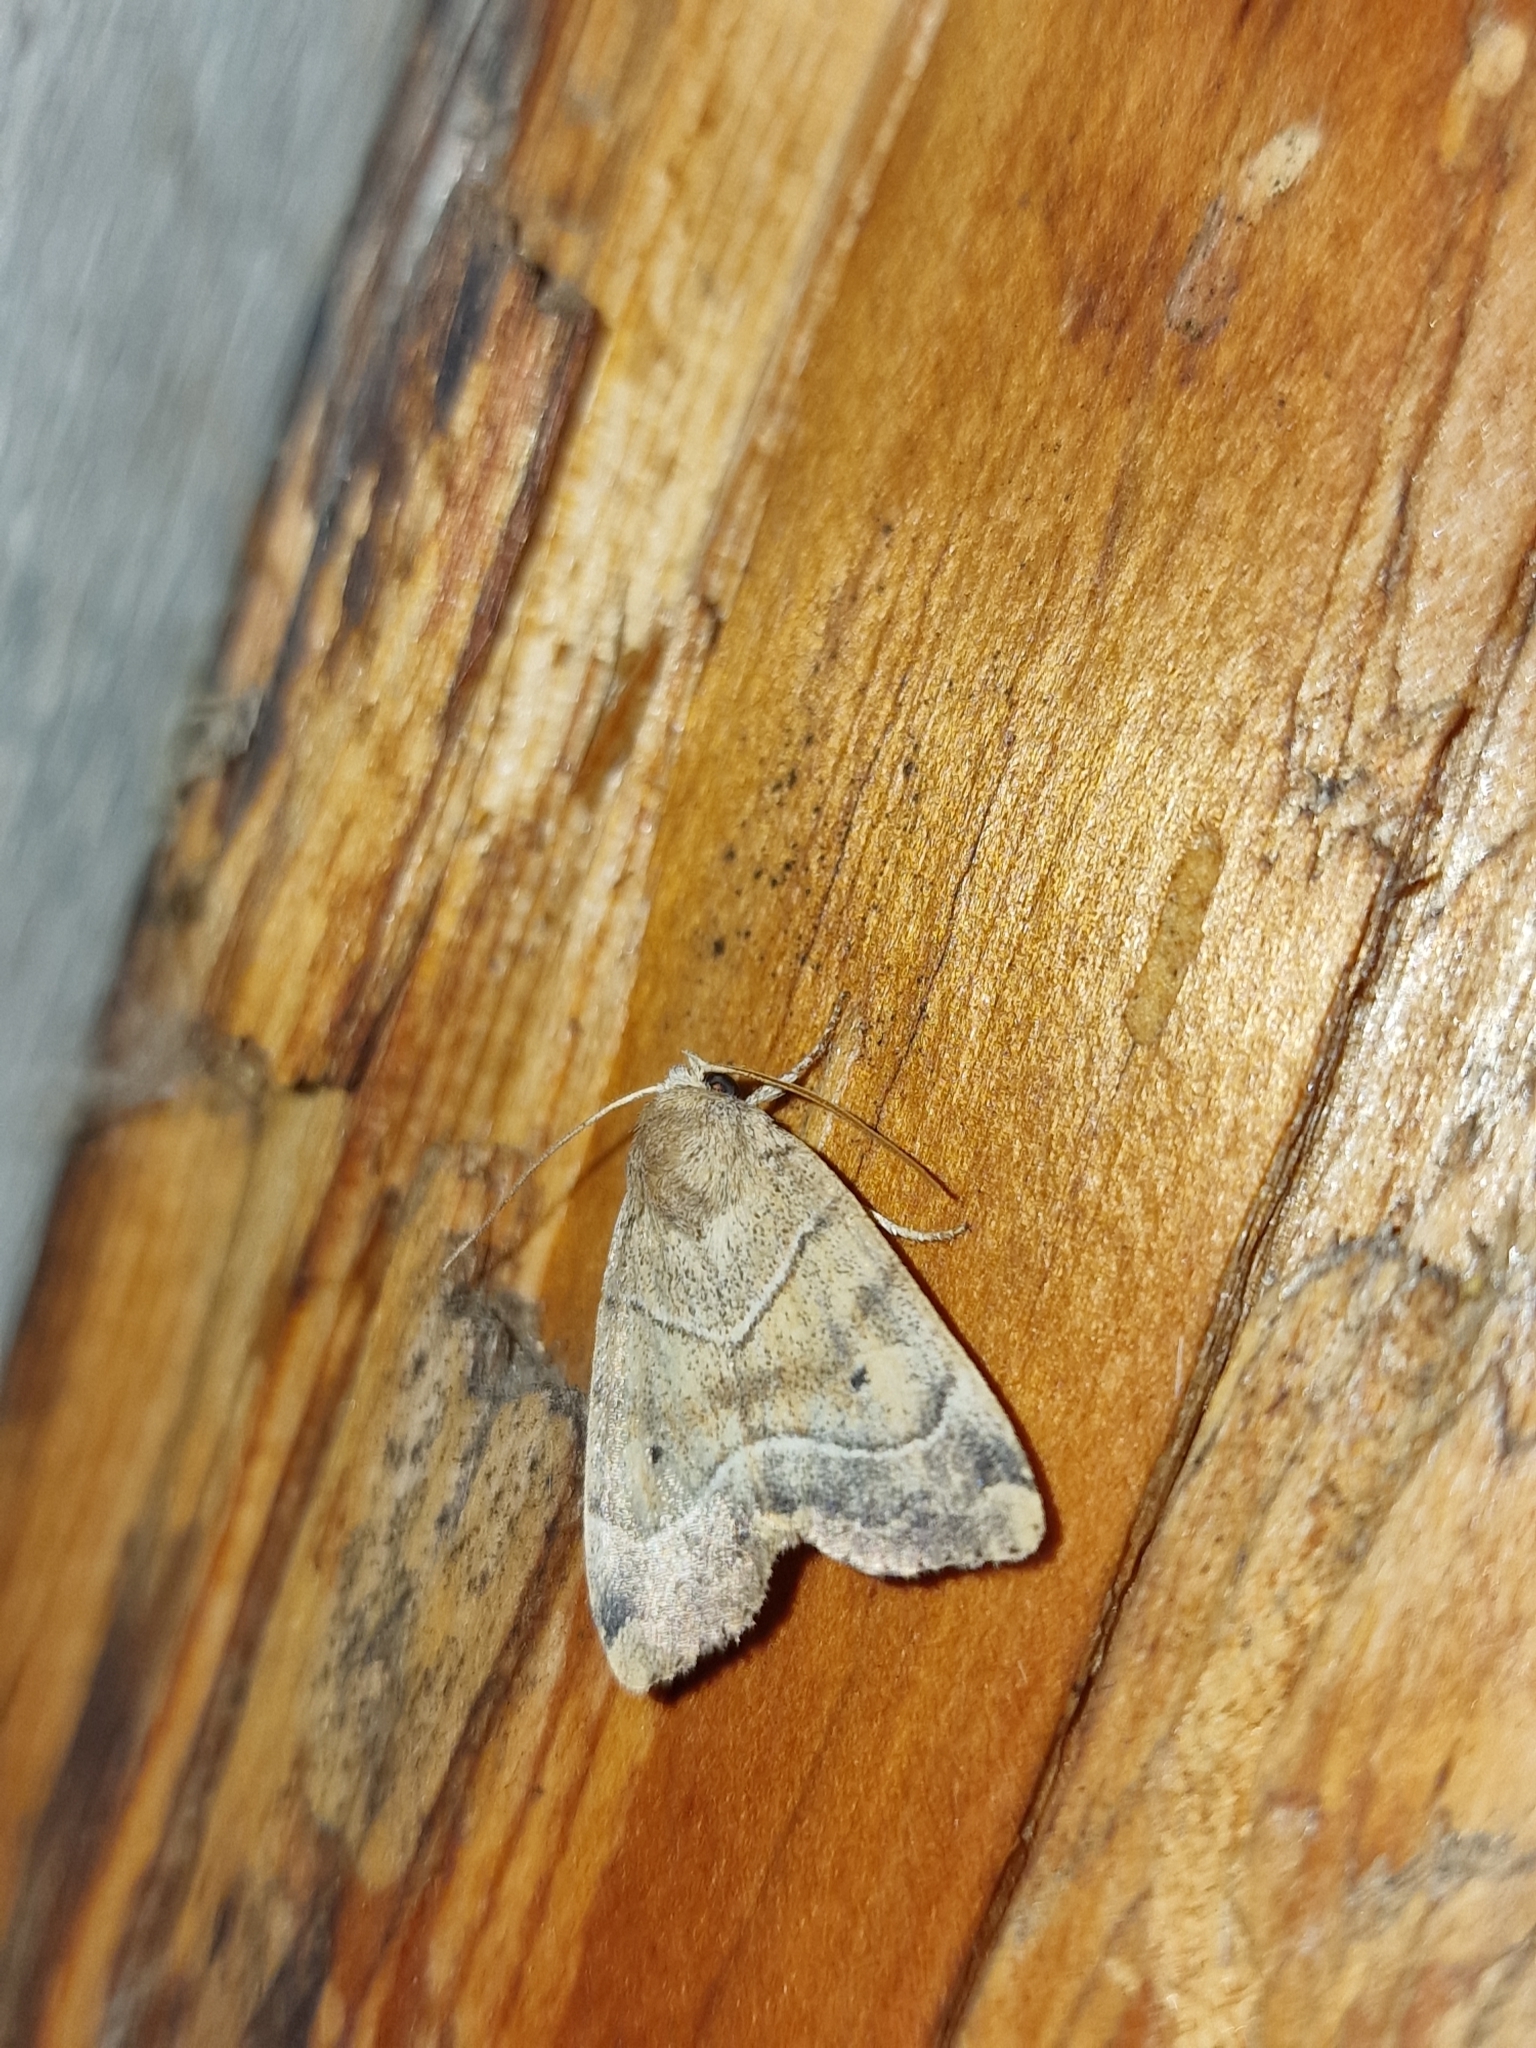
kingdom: Animalia
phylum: Arthropoda
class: Insecta
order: Lepidoptera
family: Noctuidae
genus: Cosmia
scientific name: Cosmia trapezina
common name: Dun-bar
